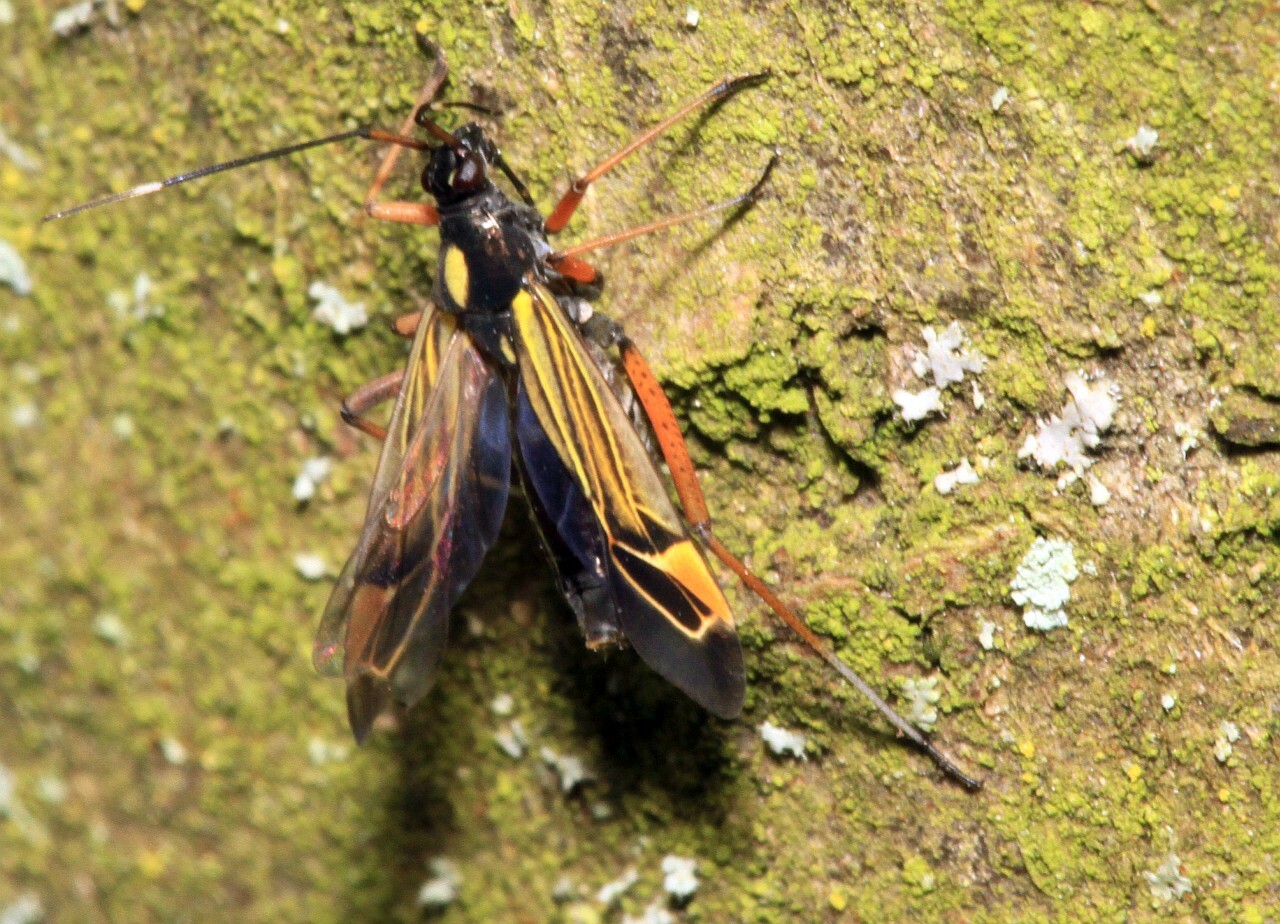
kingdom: Animalia
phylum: Arthropoda
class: Insecta
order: Hemiptera
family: Miridae
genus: Miris
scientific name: Miris striatus
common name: Fine streaked bugkin
